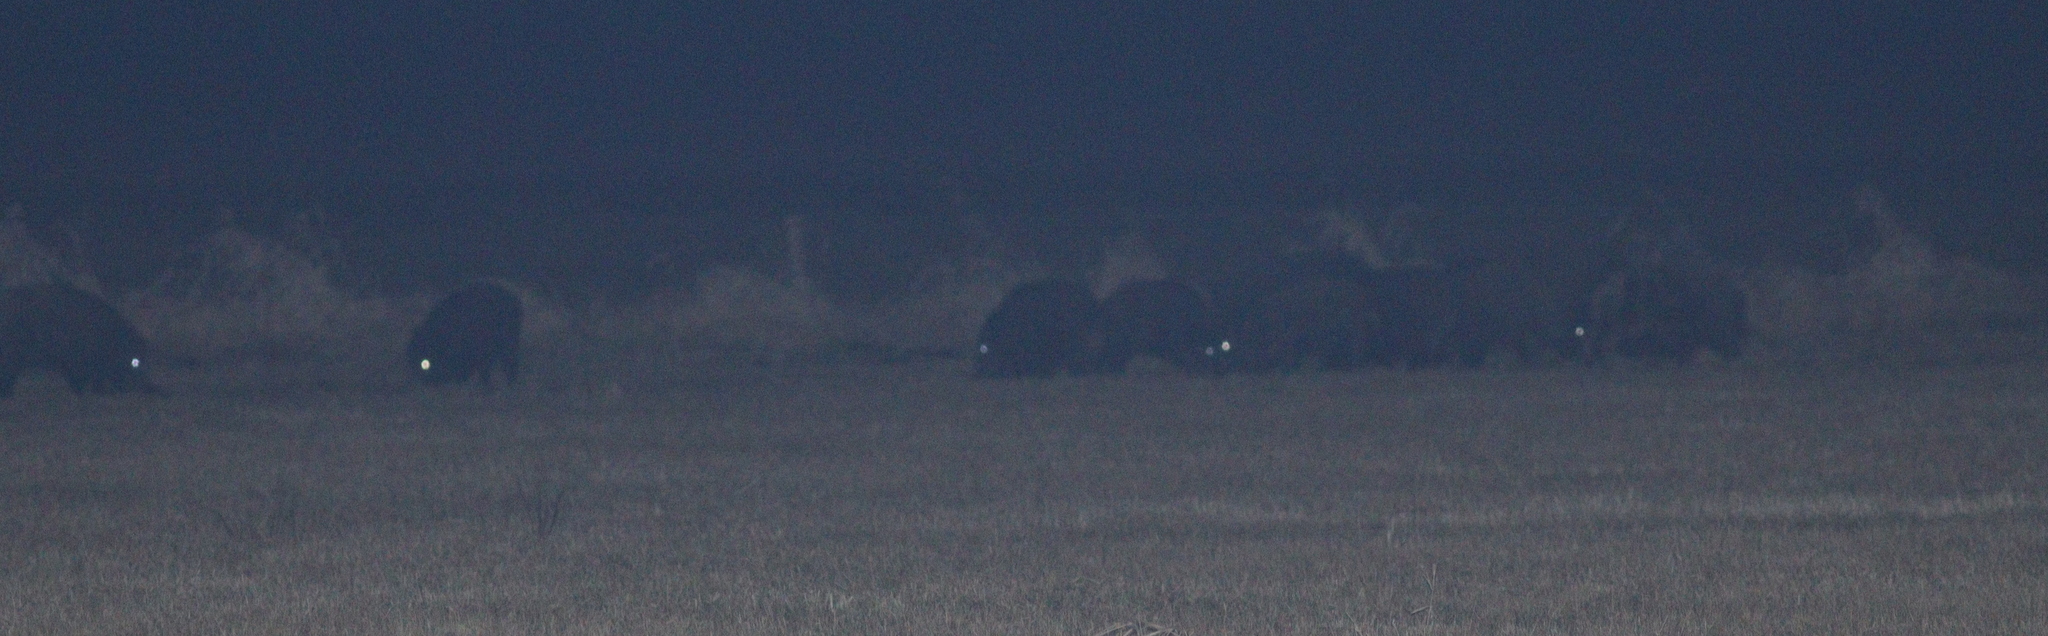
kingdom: Animalia
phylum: Chordata
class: Mammalia
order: Artiodactyla
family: Suidae
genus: Sus
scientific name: Sus scrofa
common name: Wild boar
